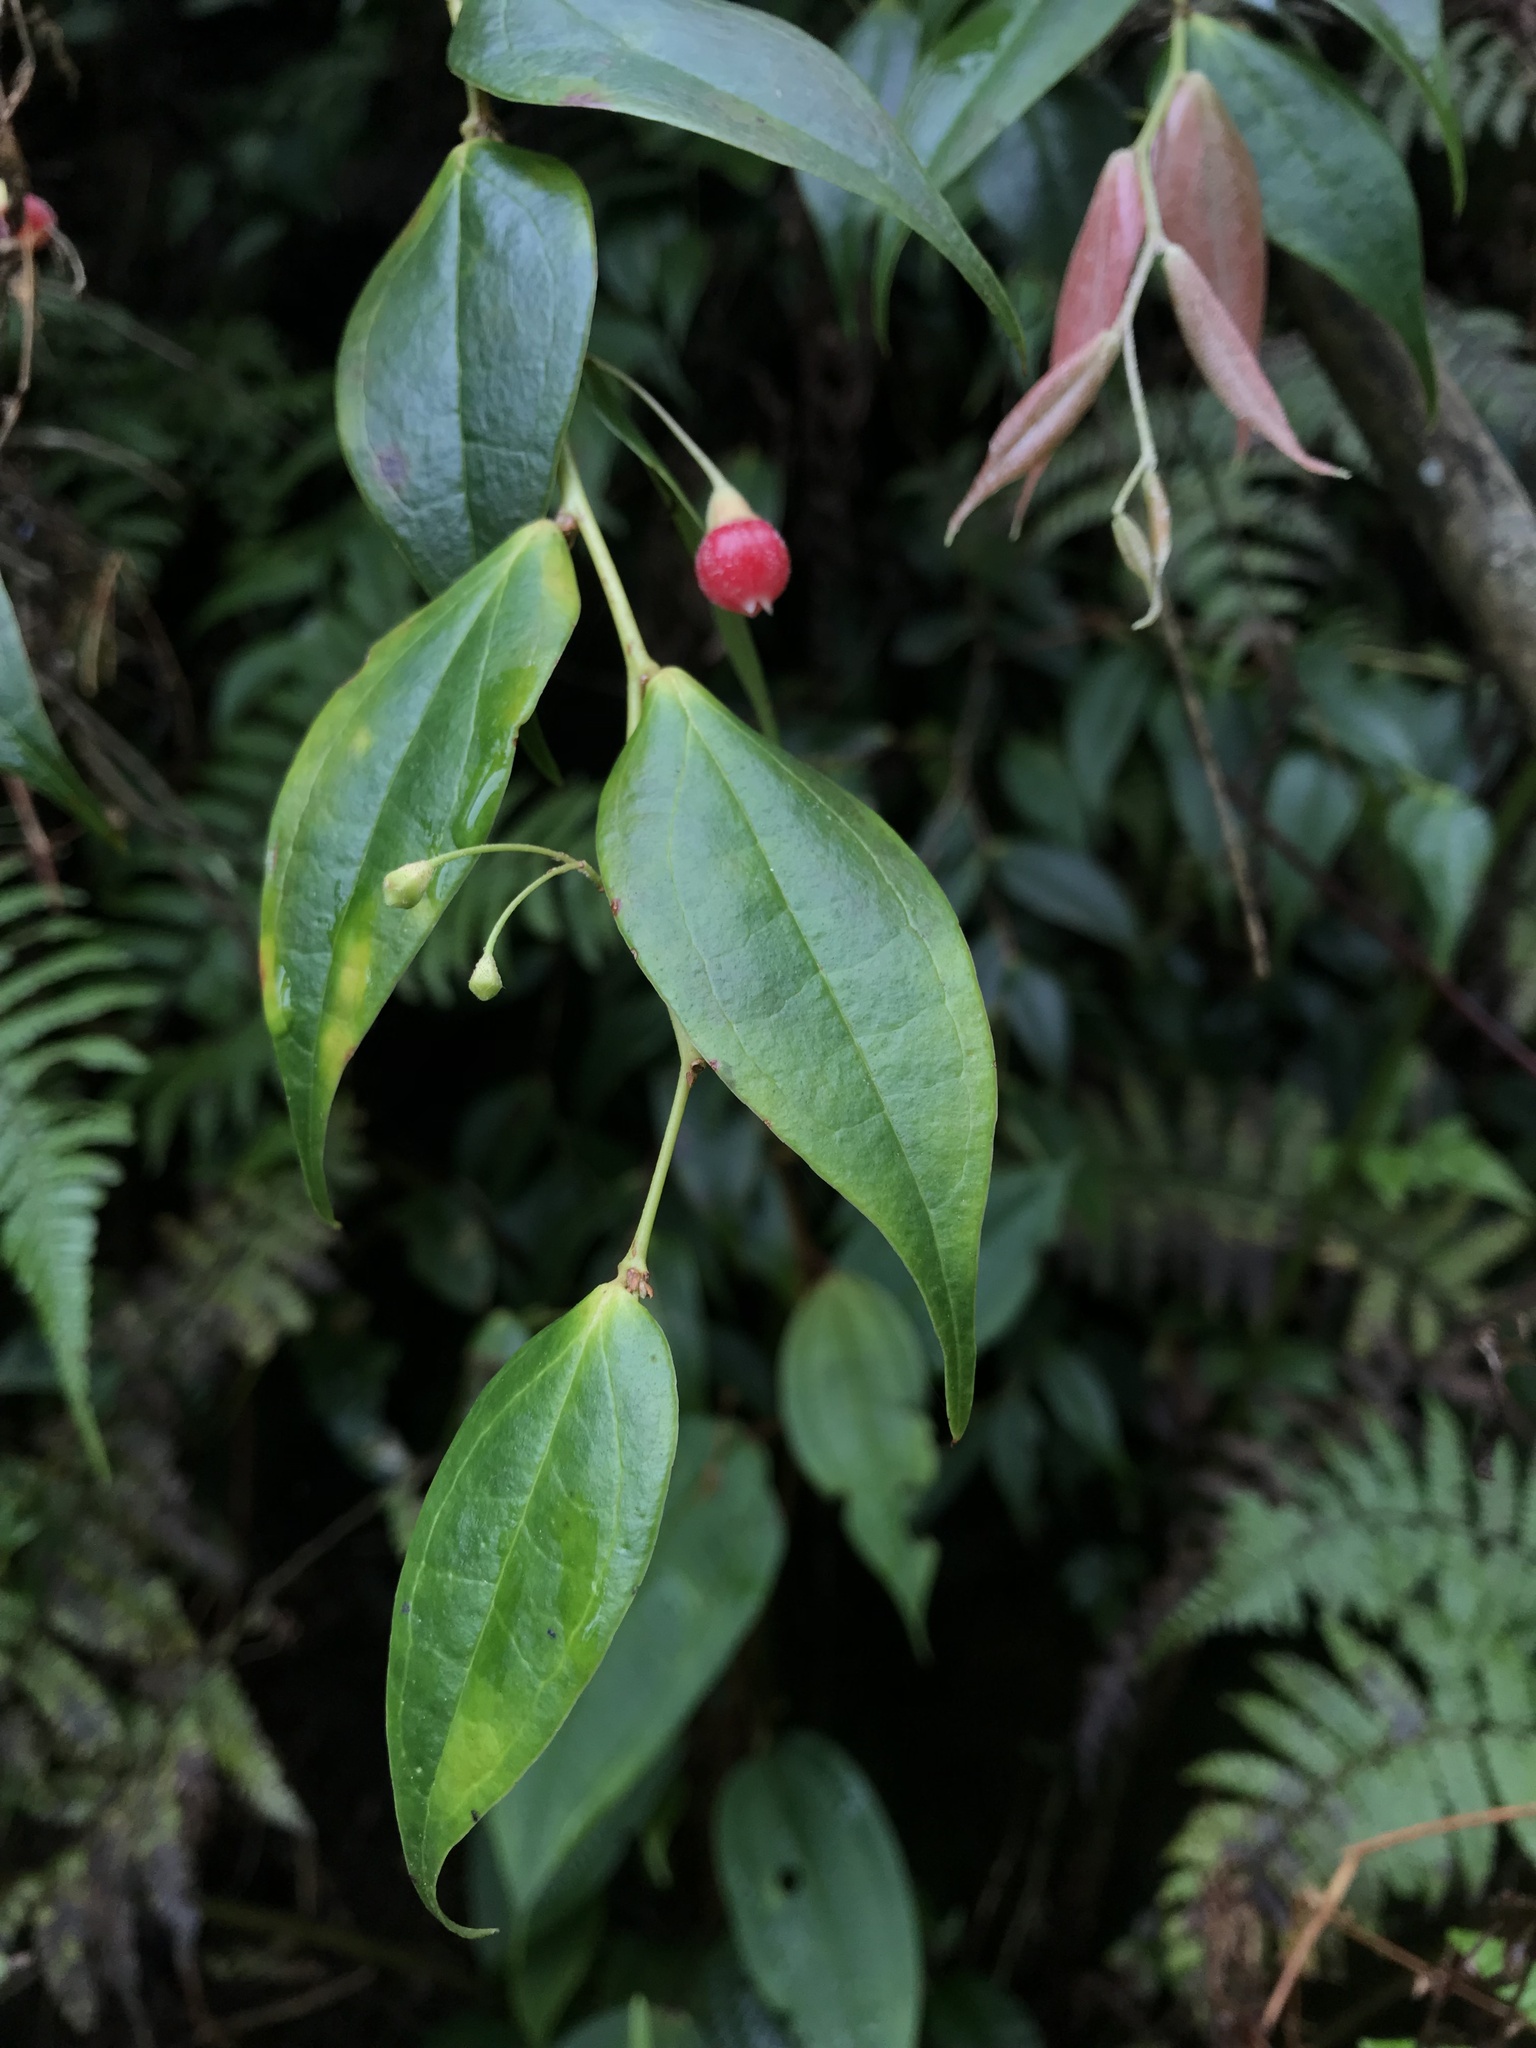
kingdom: Plantae
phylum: Tracheophyta
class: Magnoliopsida
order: Ericales
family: Ericaceae
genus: Themistoclesia
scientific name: Themistoclesia rostrata
